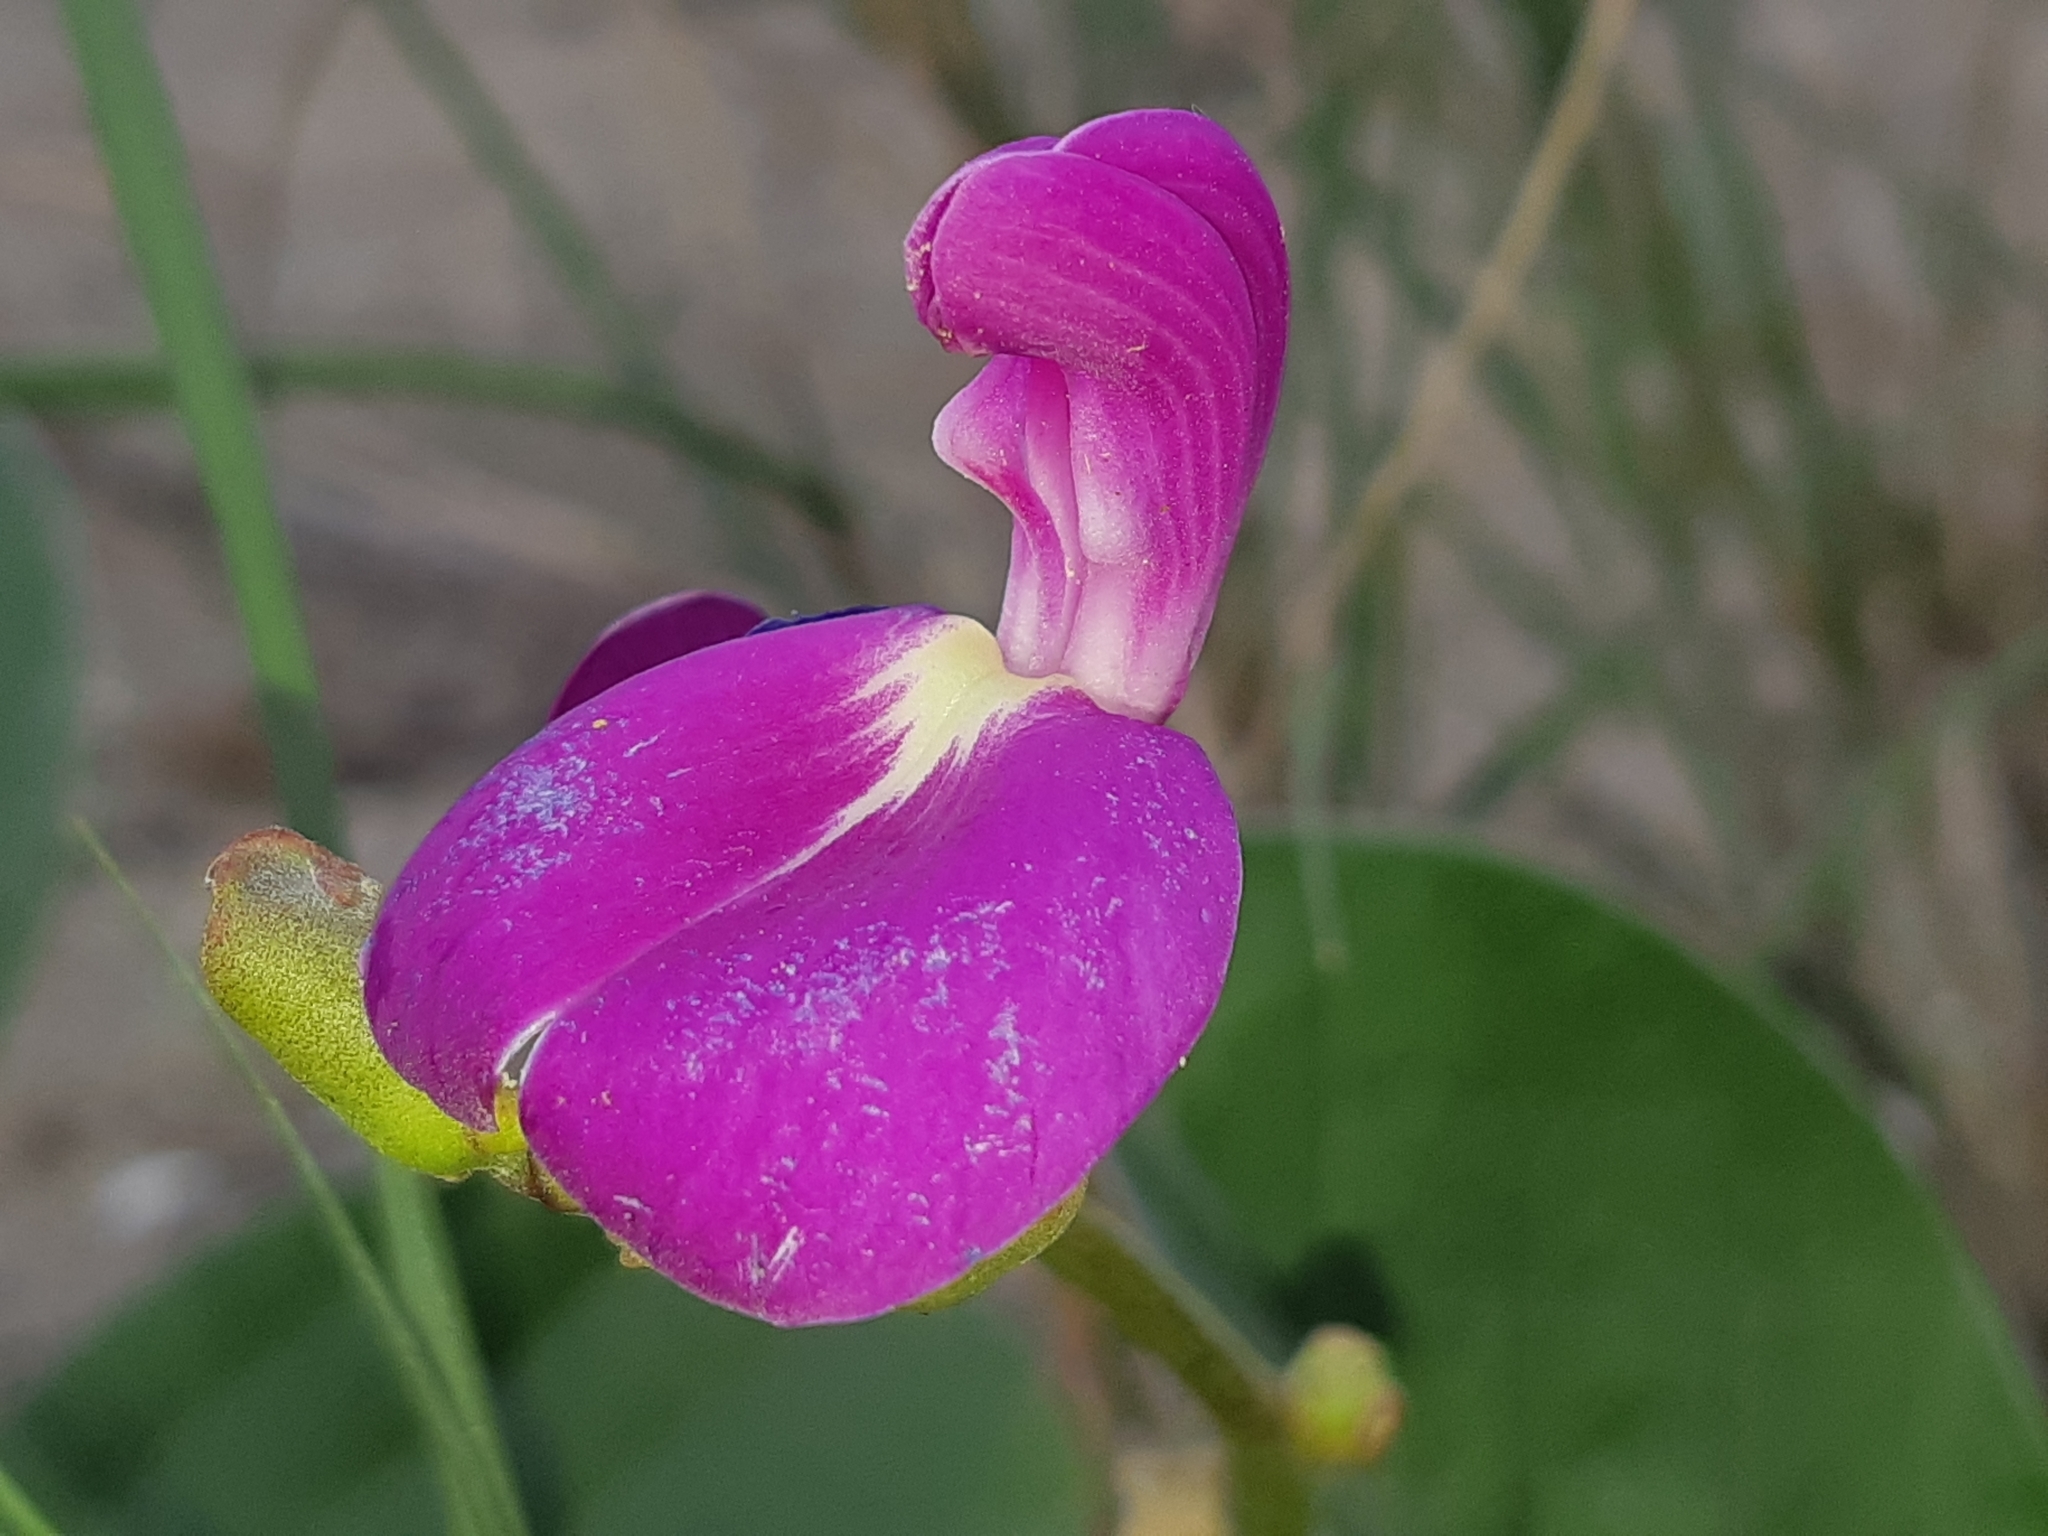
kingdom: Plantae
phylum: Tracheophyta
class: Magnoliopsida
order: Fabales
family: Fabaceae
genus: Canavalia
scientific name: Canavalia rosea
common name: Beach-bean
